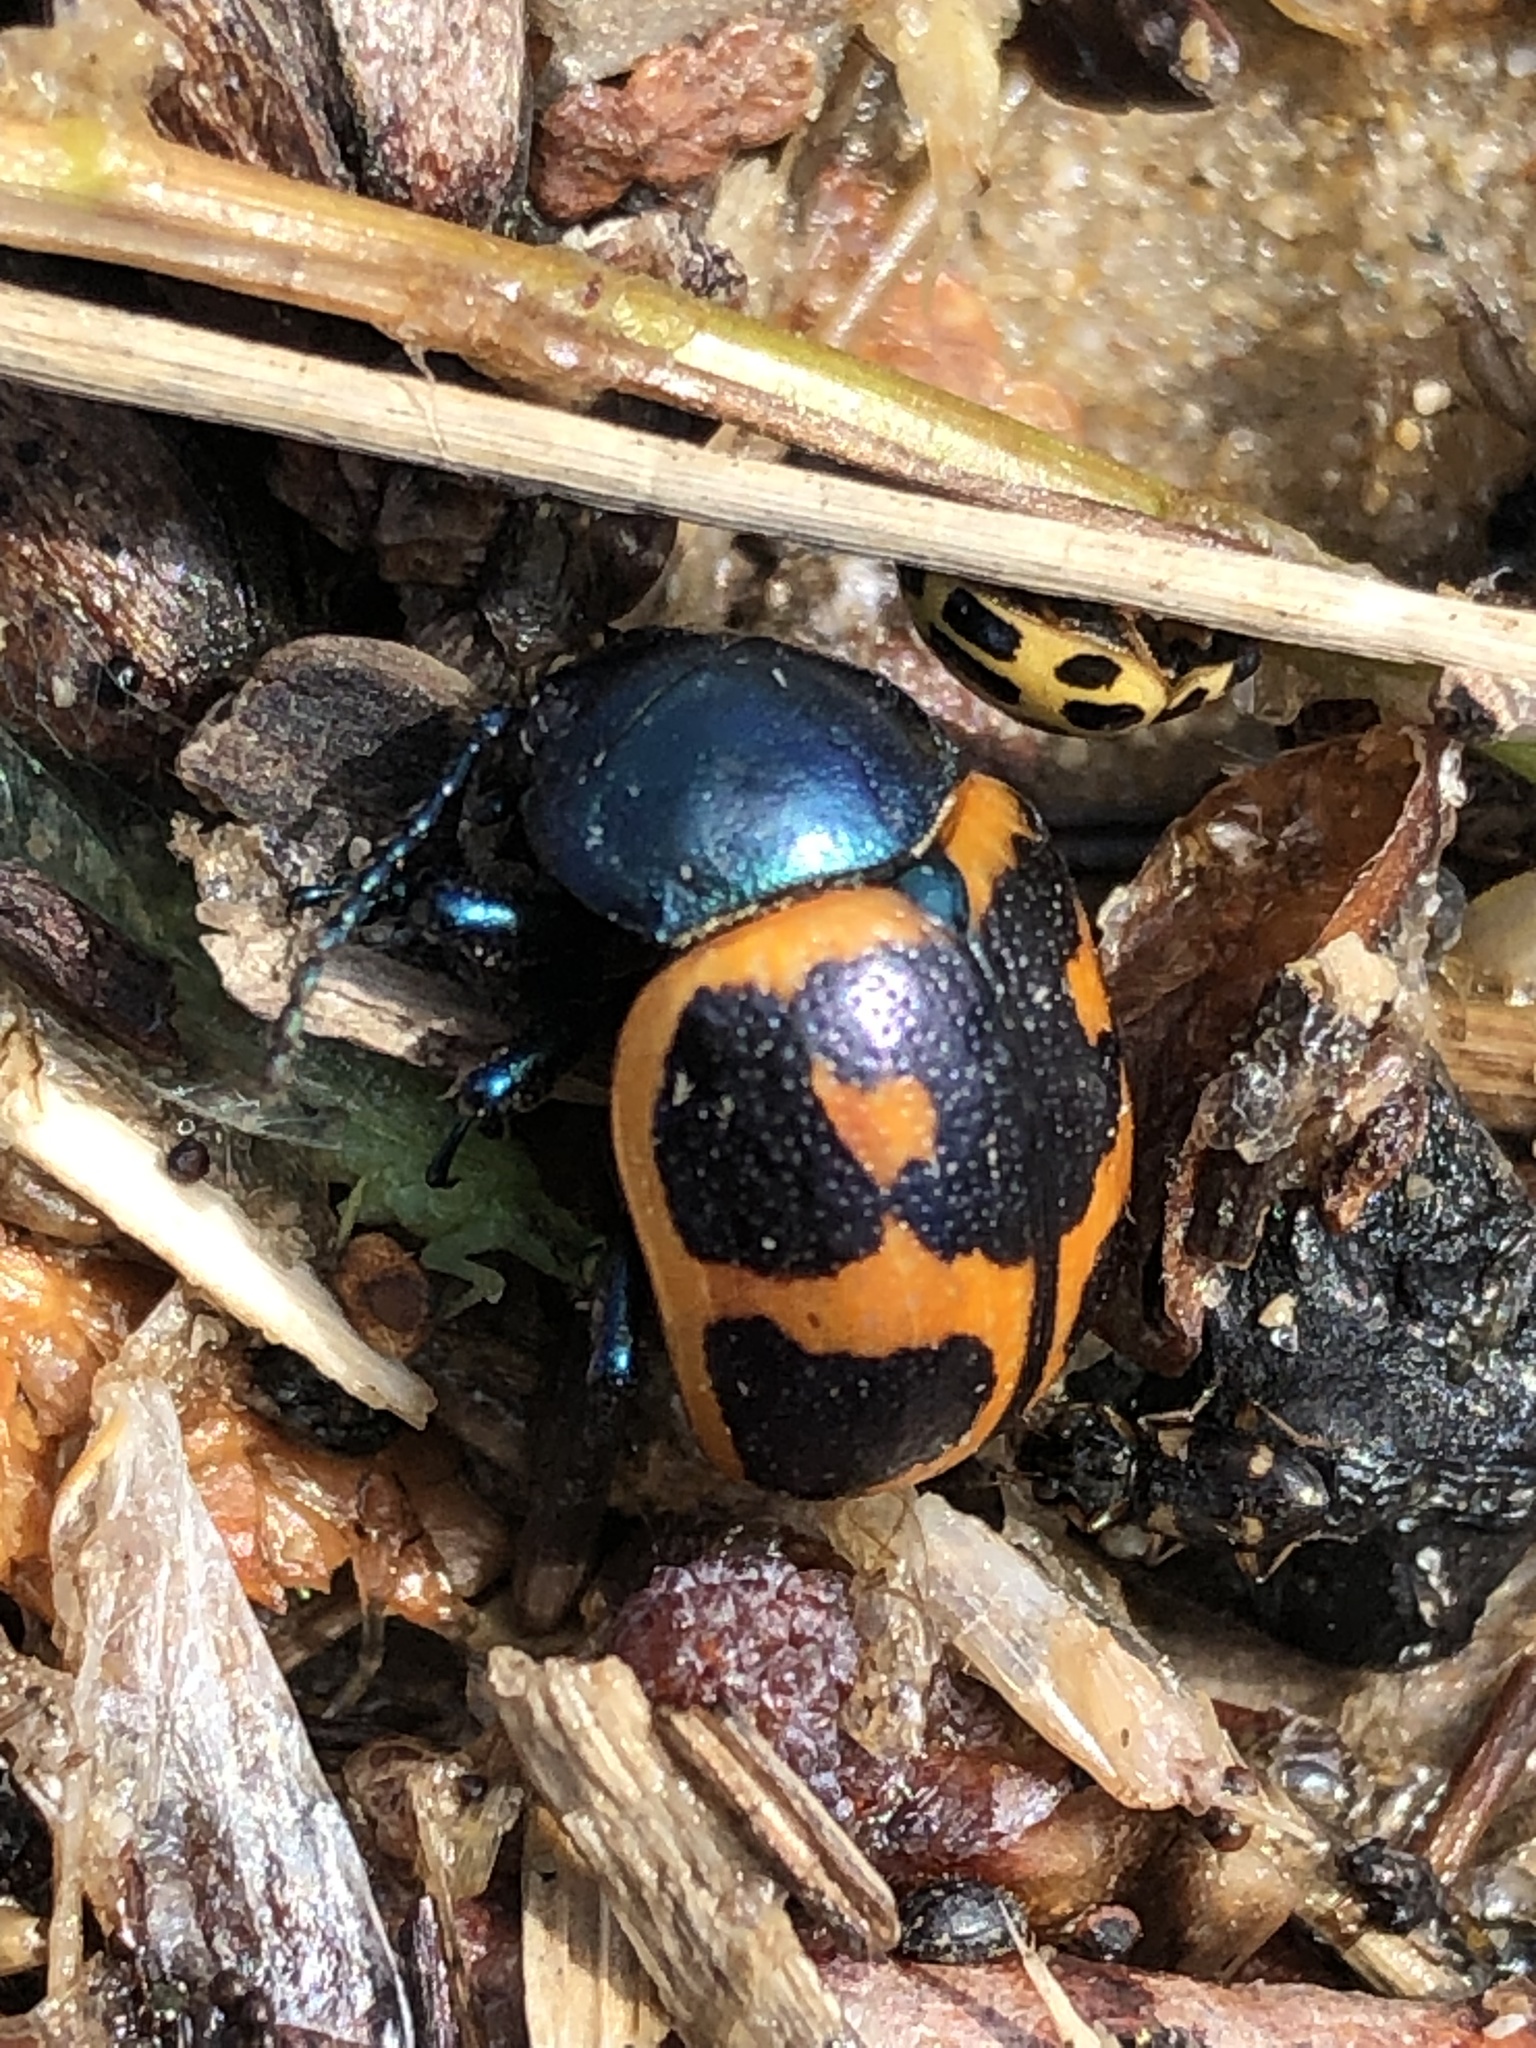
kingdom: Animalia
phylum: Arthropoda
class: Insecta
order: Coleoptera
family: Chrysomelidae
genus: Labidomera
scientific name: Labidomera clivicollis
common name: Swamp milkweed leaf beetle
